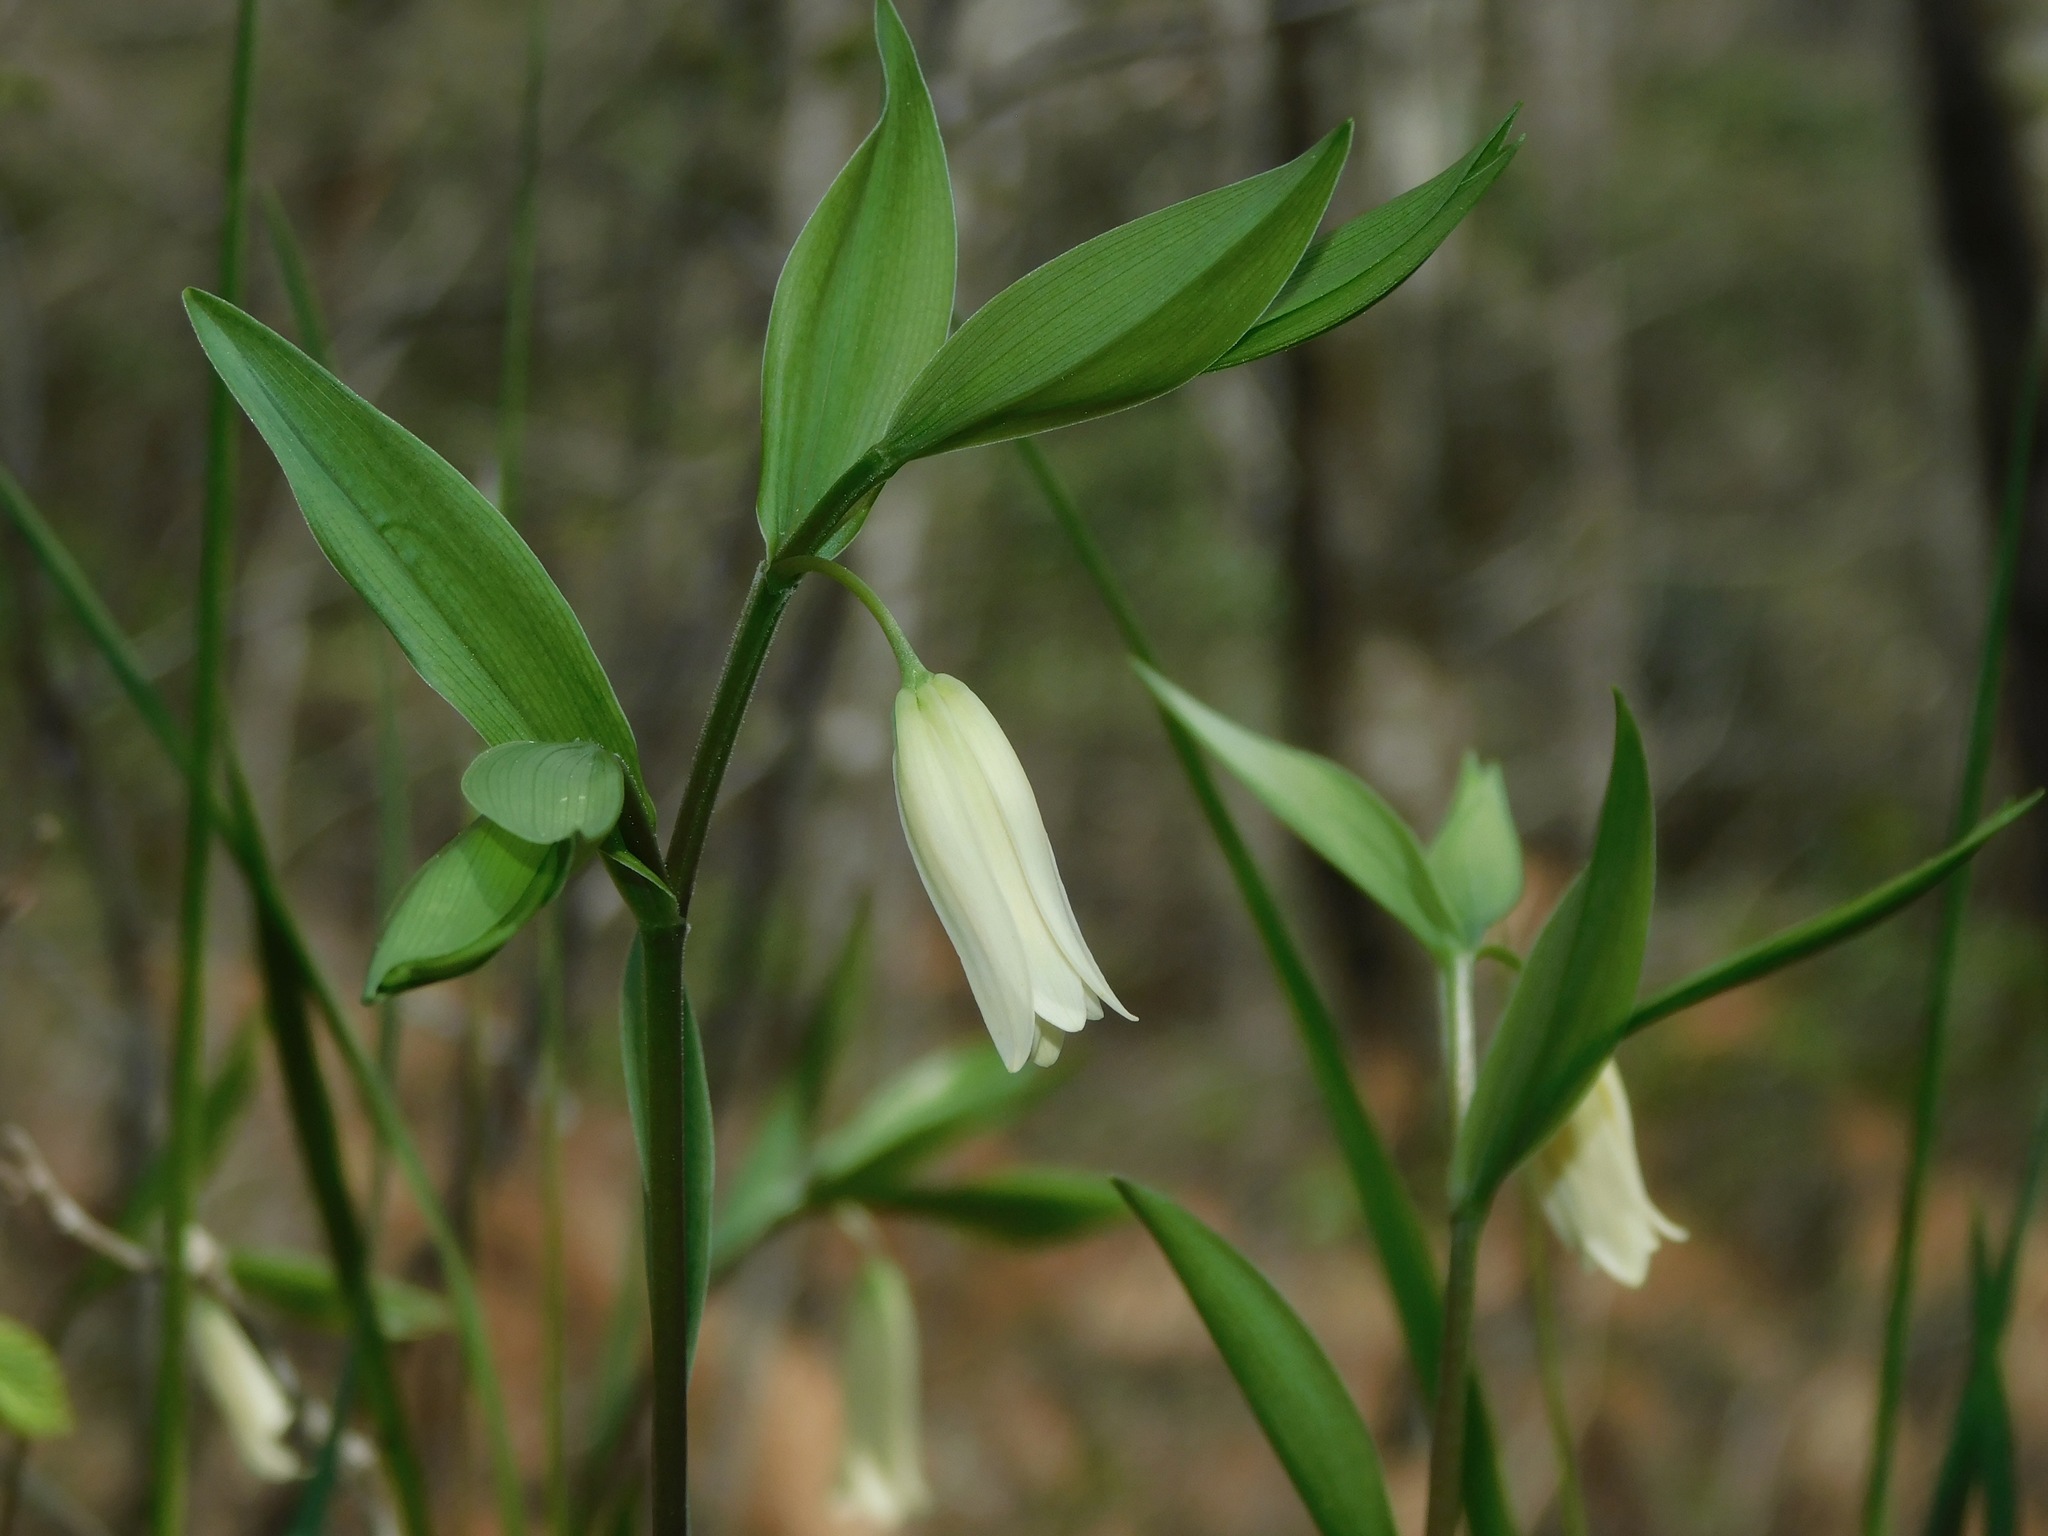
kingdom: Plantae
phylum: Tracheophyta
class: Liliopsida
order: Liliales
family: Colchicaceae
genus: Uvularia
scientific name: Uvularia puberula
